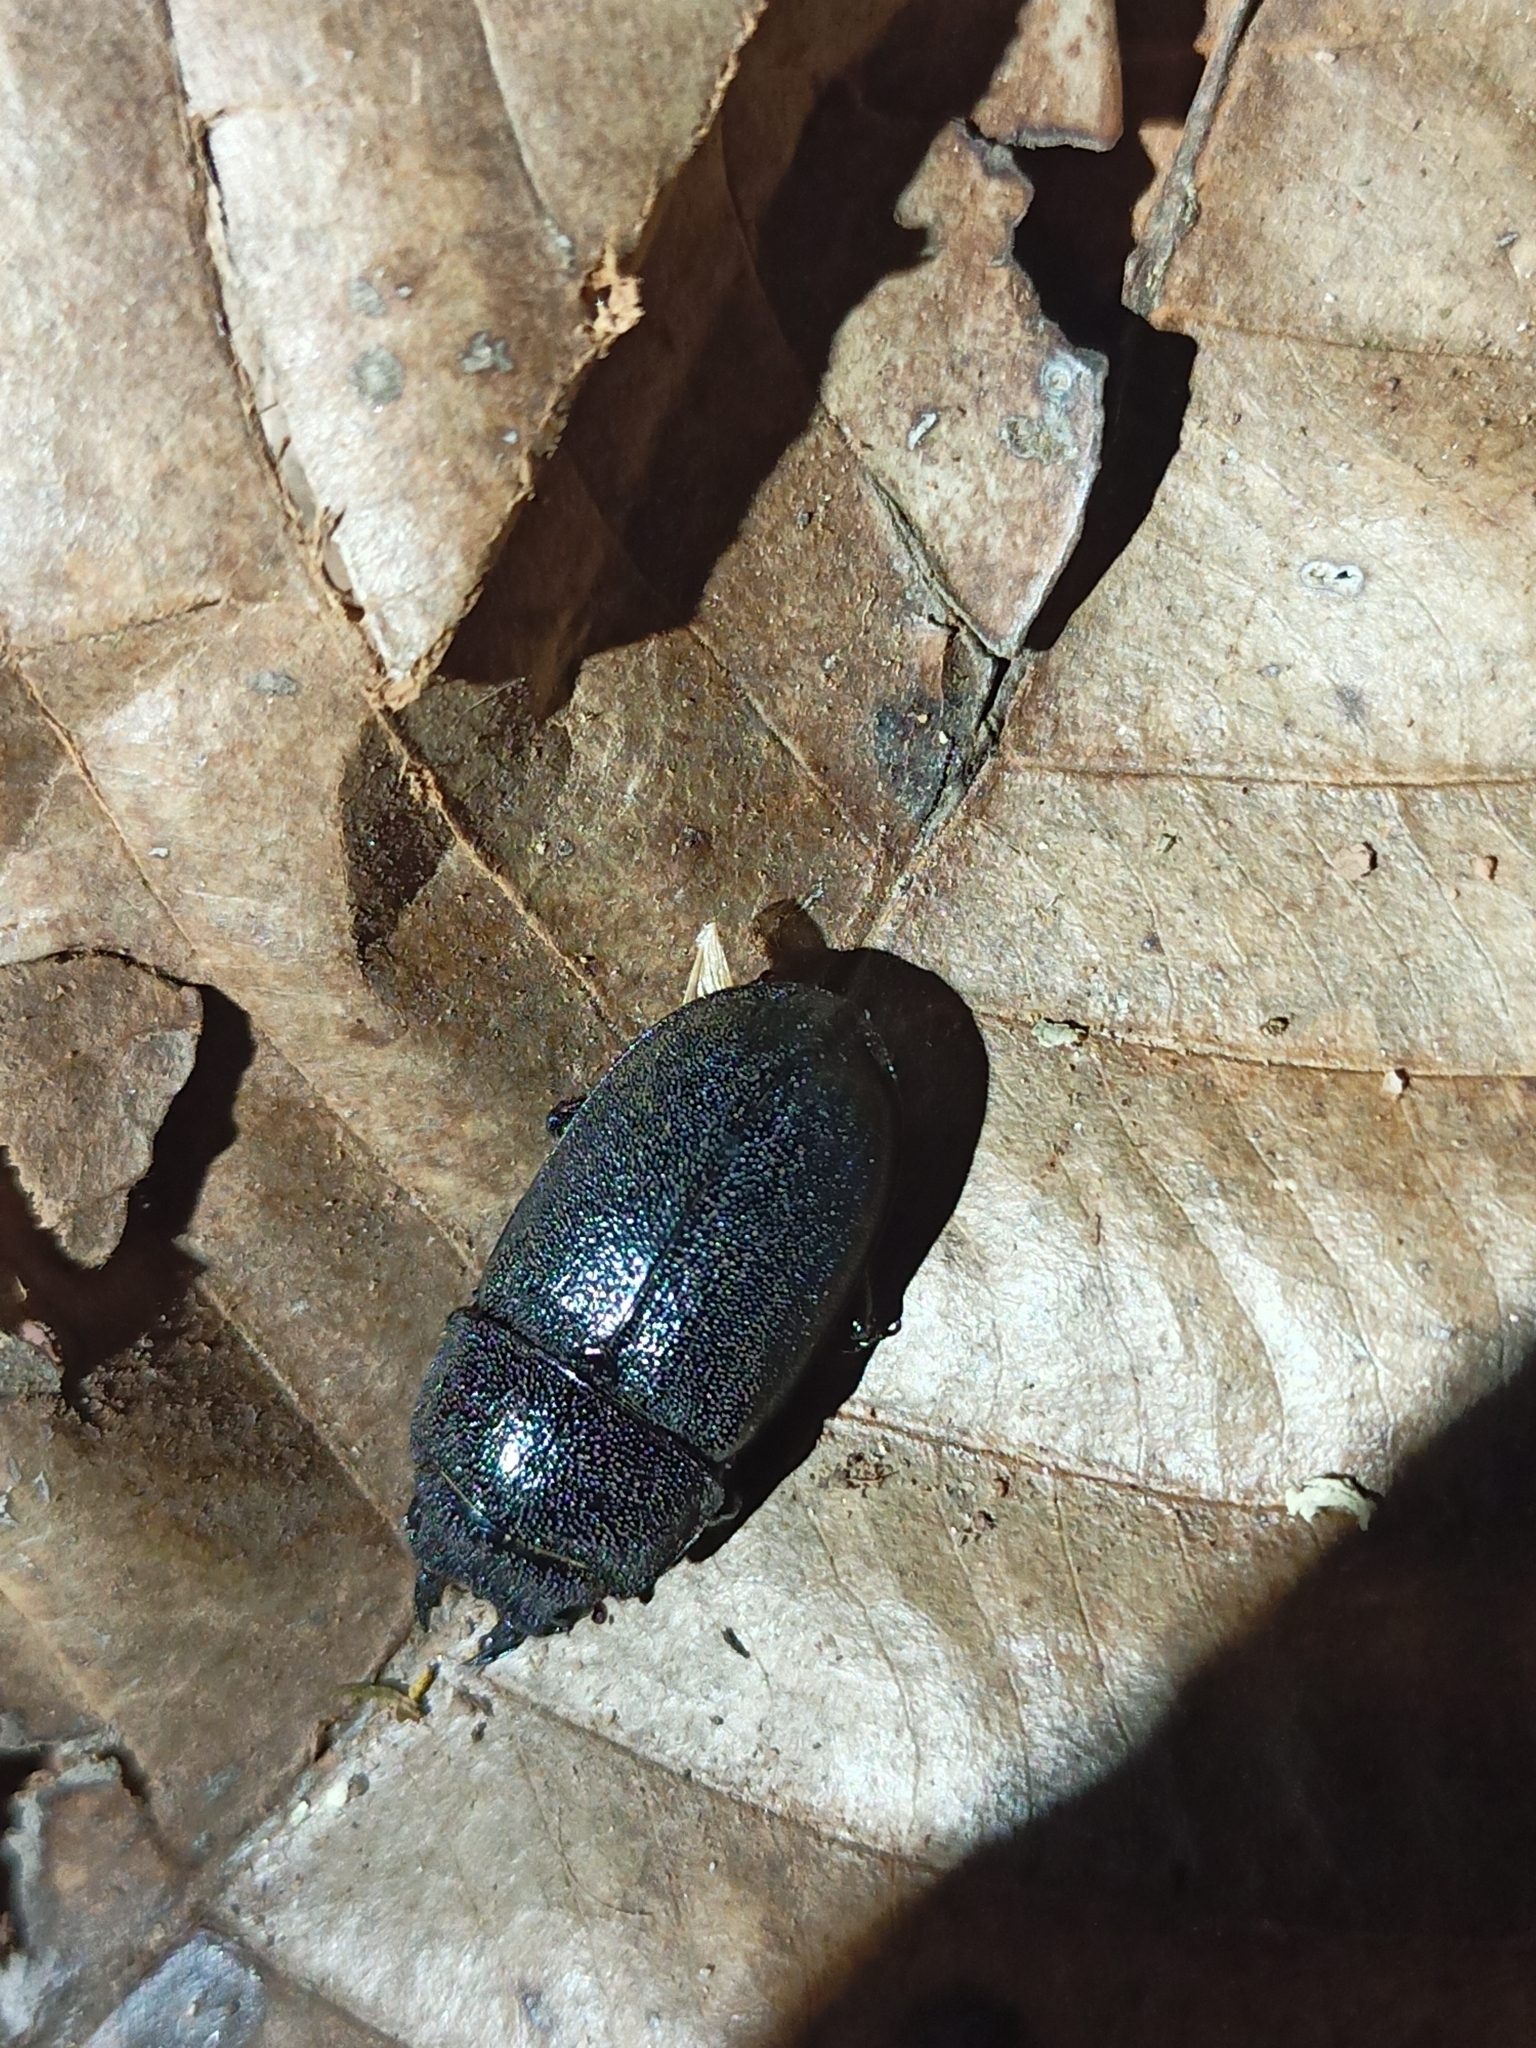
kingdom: Animalia
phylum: Arthropoda
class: Insecta
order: Coleoptera
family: Lucanidae
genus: Prosopocoilus
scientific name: Prosopocoilus candezei
